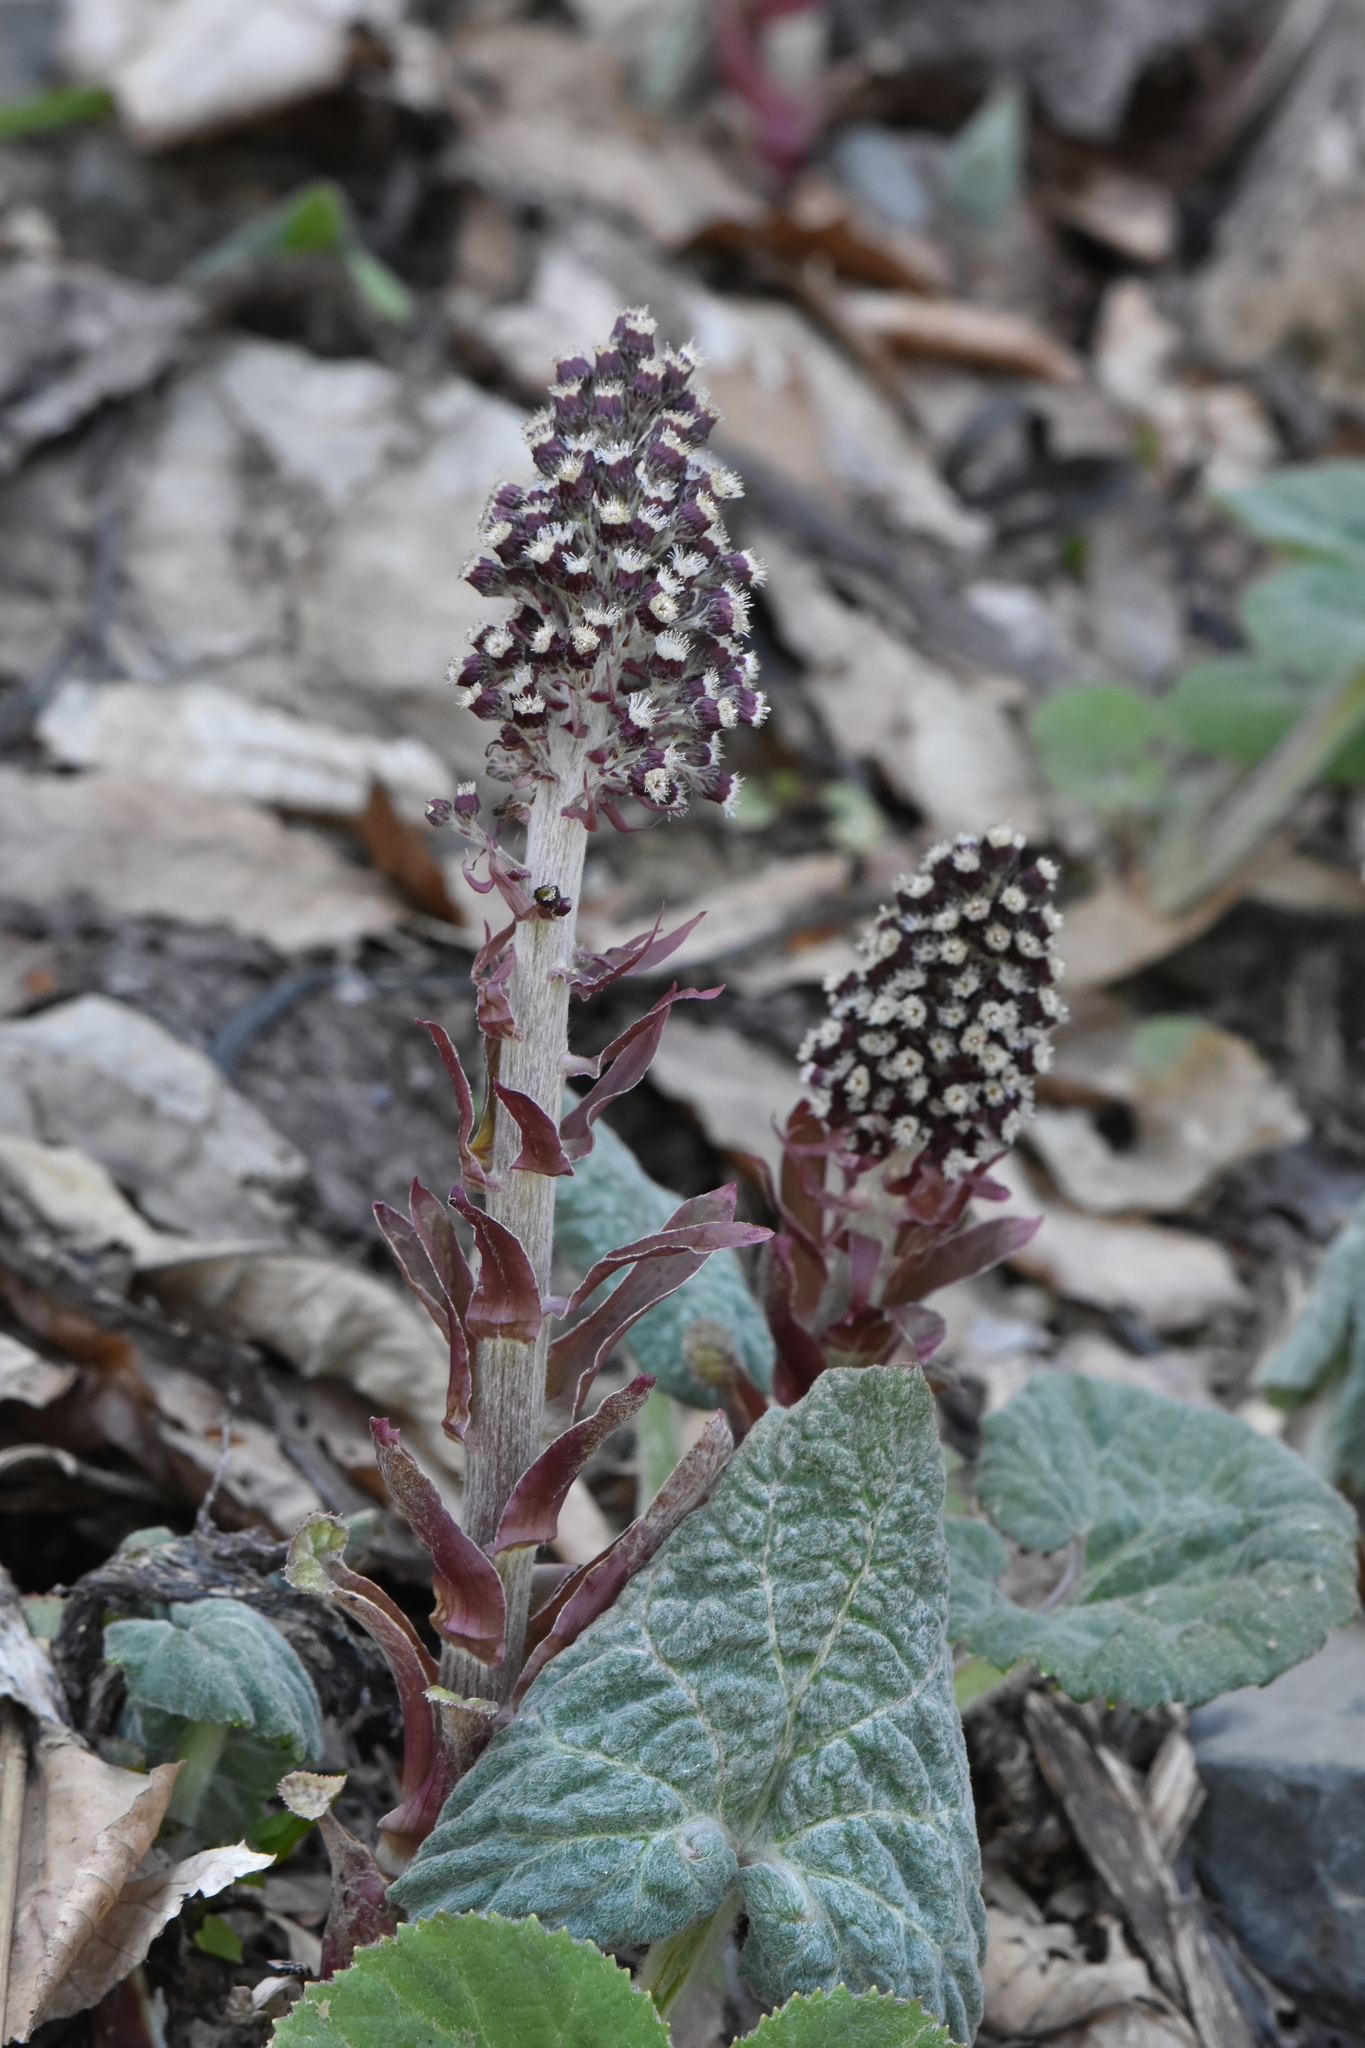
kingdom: Plantae
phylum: Tracheophyta
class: Magnoliopsida
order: Asterales
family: Asteraceae
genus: Petasites
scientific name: Petasites hybridus
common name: Butterbur
